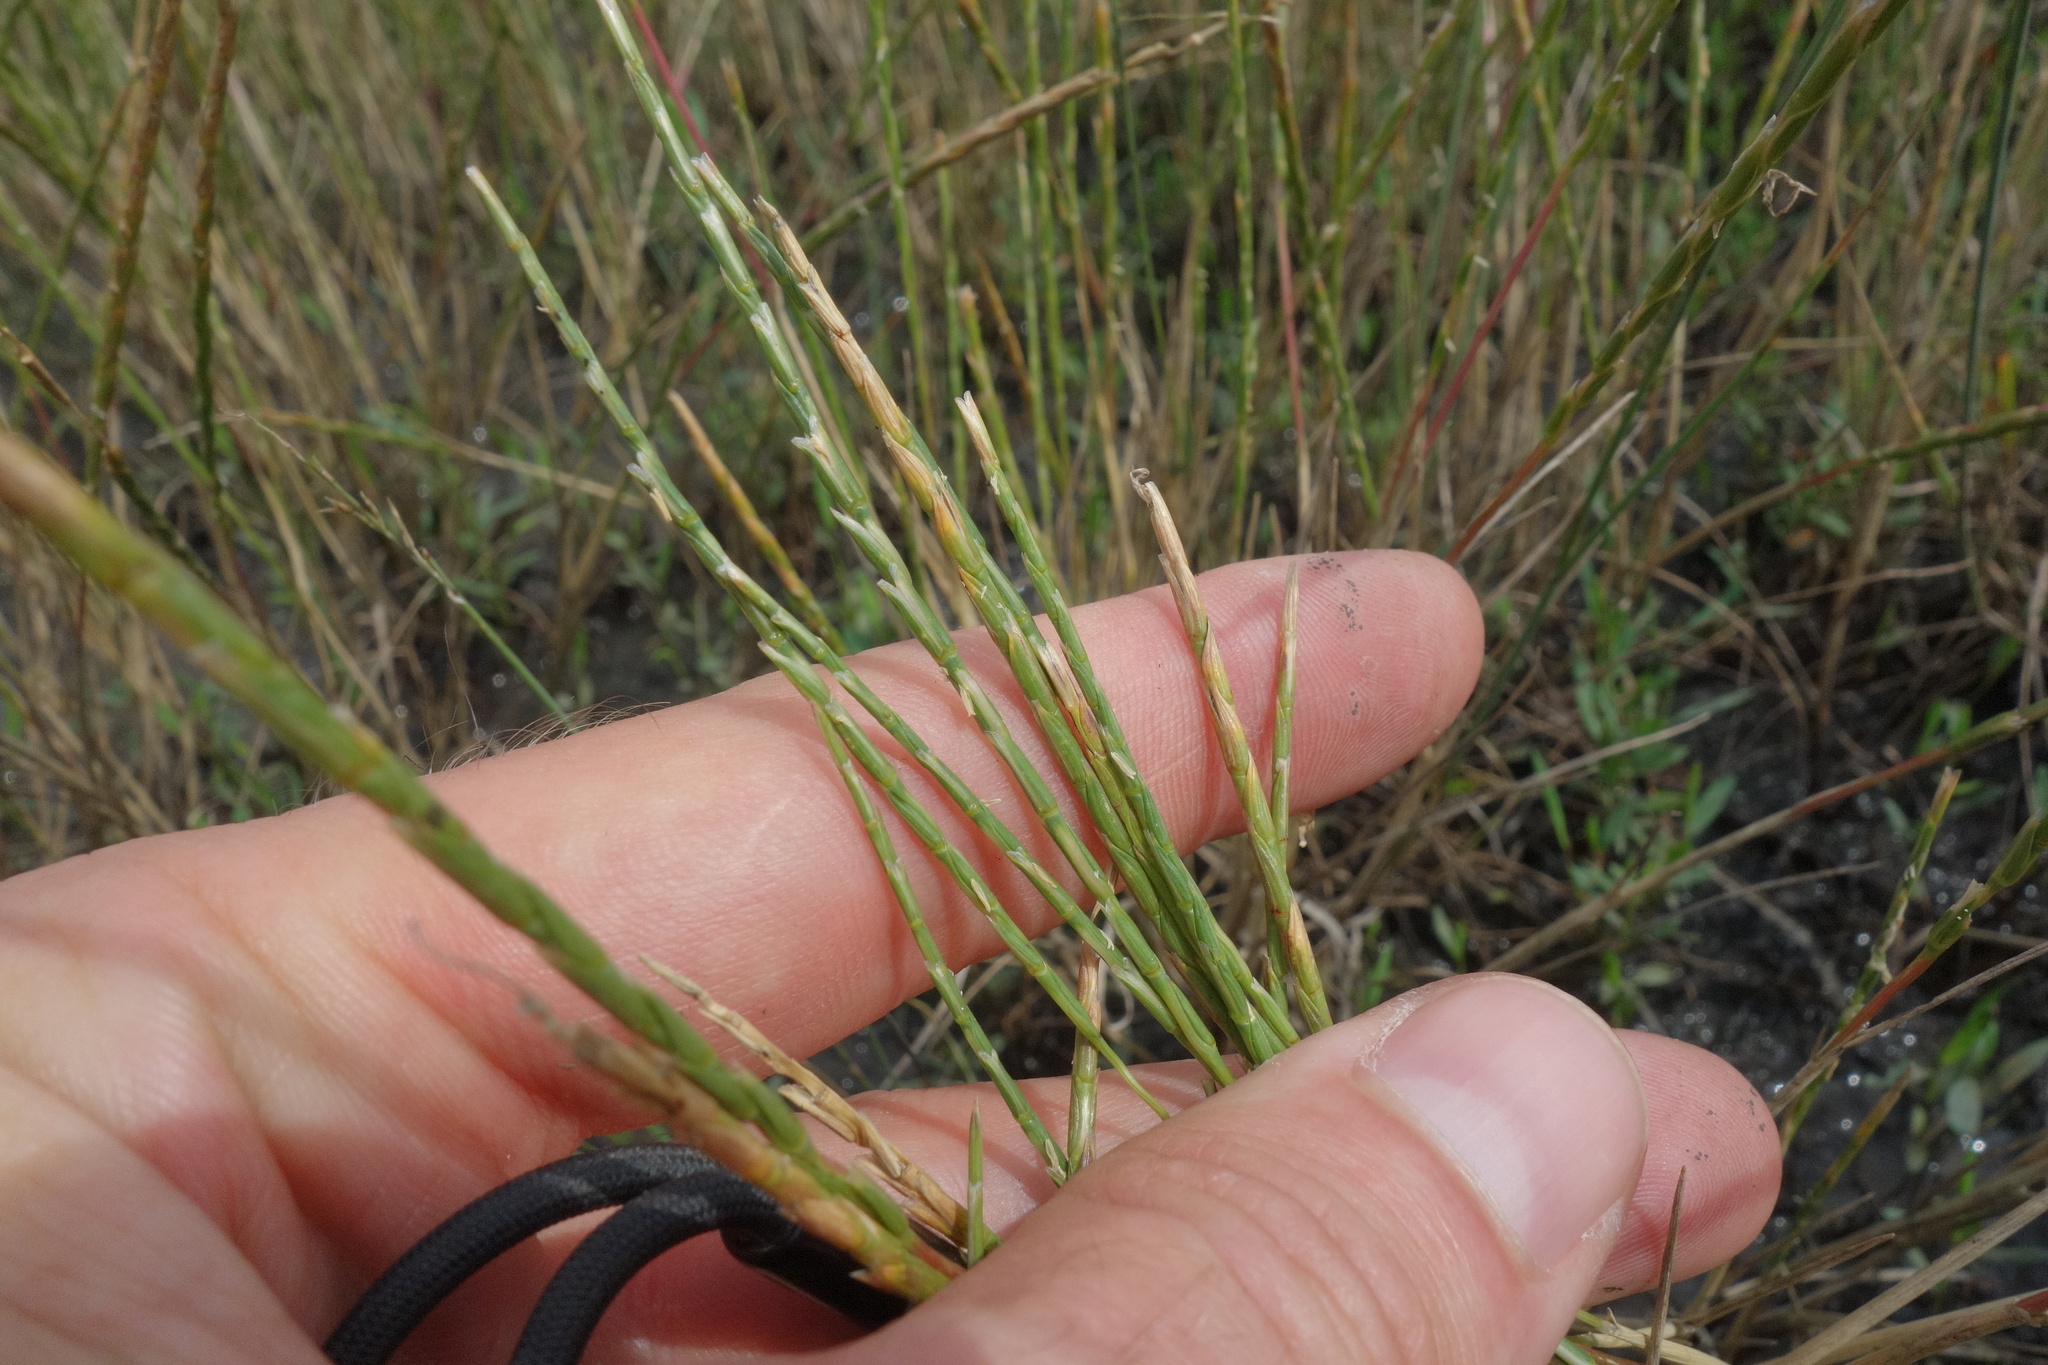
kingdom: Plantae
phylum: Tracheophyta
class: Liliopsida
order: Poales
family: Poaceae
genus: Pholiurus
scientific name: Pholiurus pannonicus
